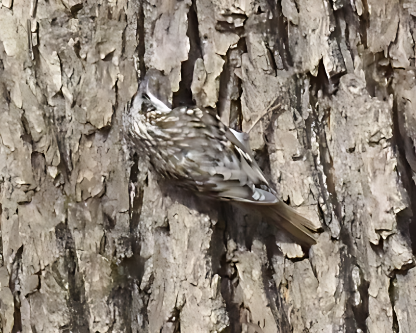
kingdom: Animalia
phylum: Chordata
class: Aves
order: Passeriformes
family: Certhiidae
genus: Certhia
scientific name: Certhia familiaris
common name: Eurasian treecreeper
